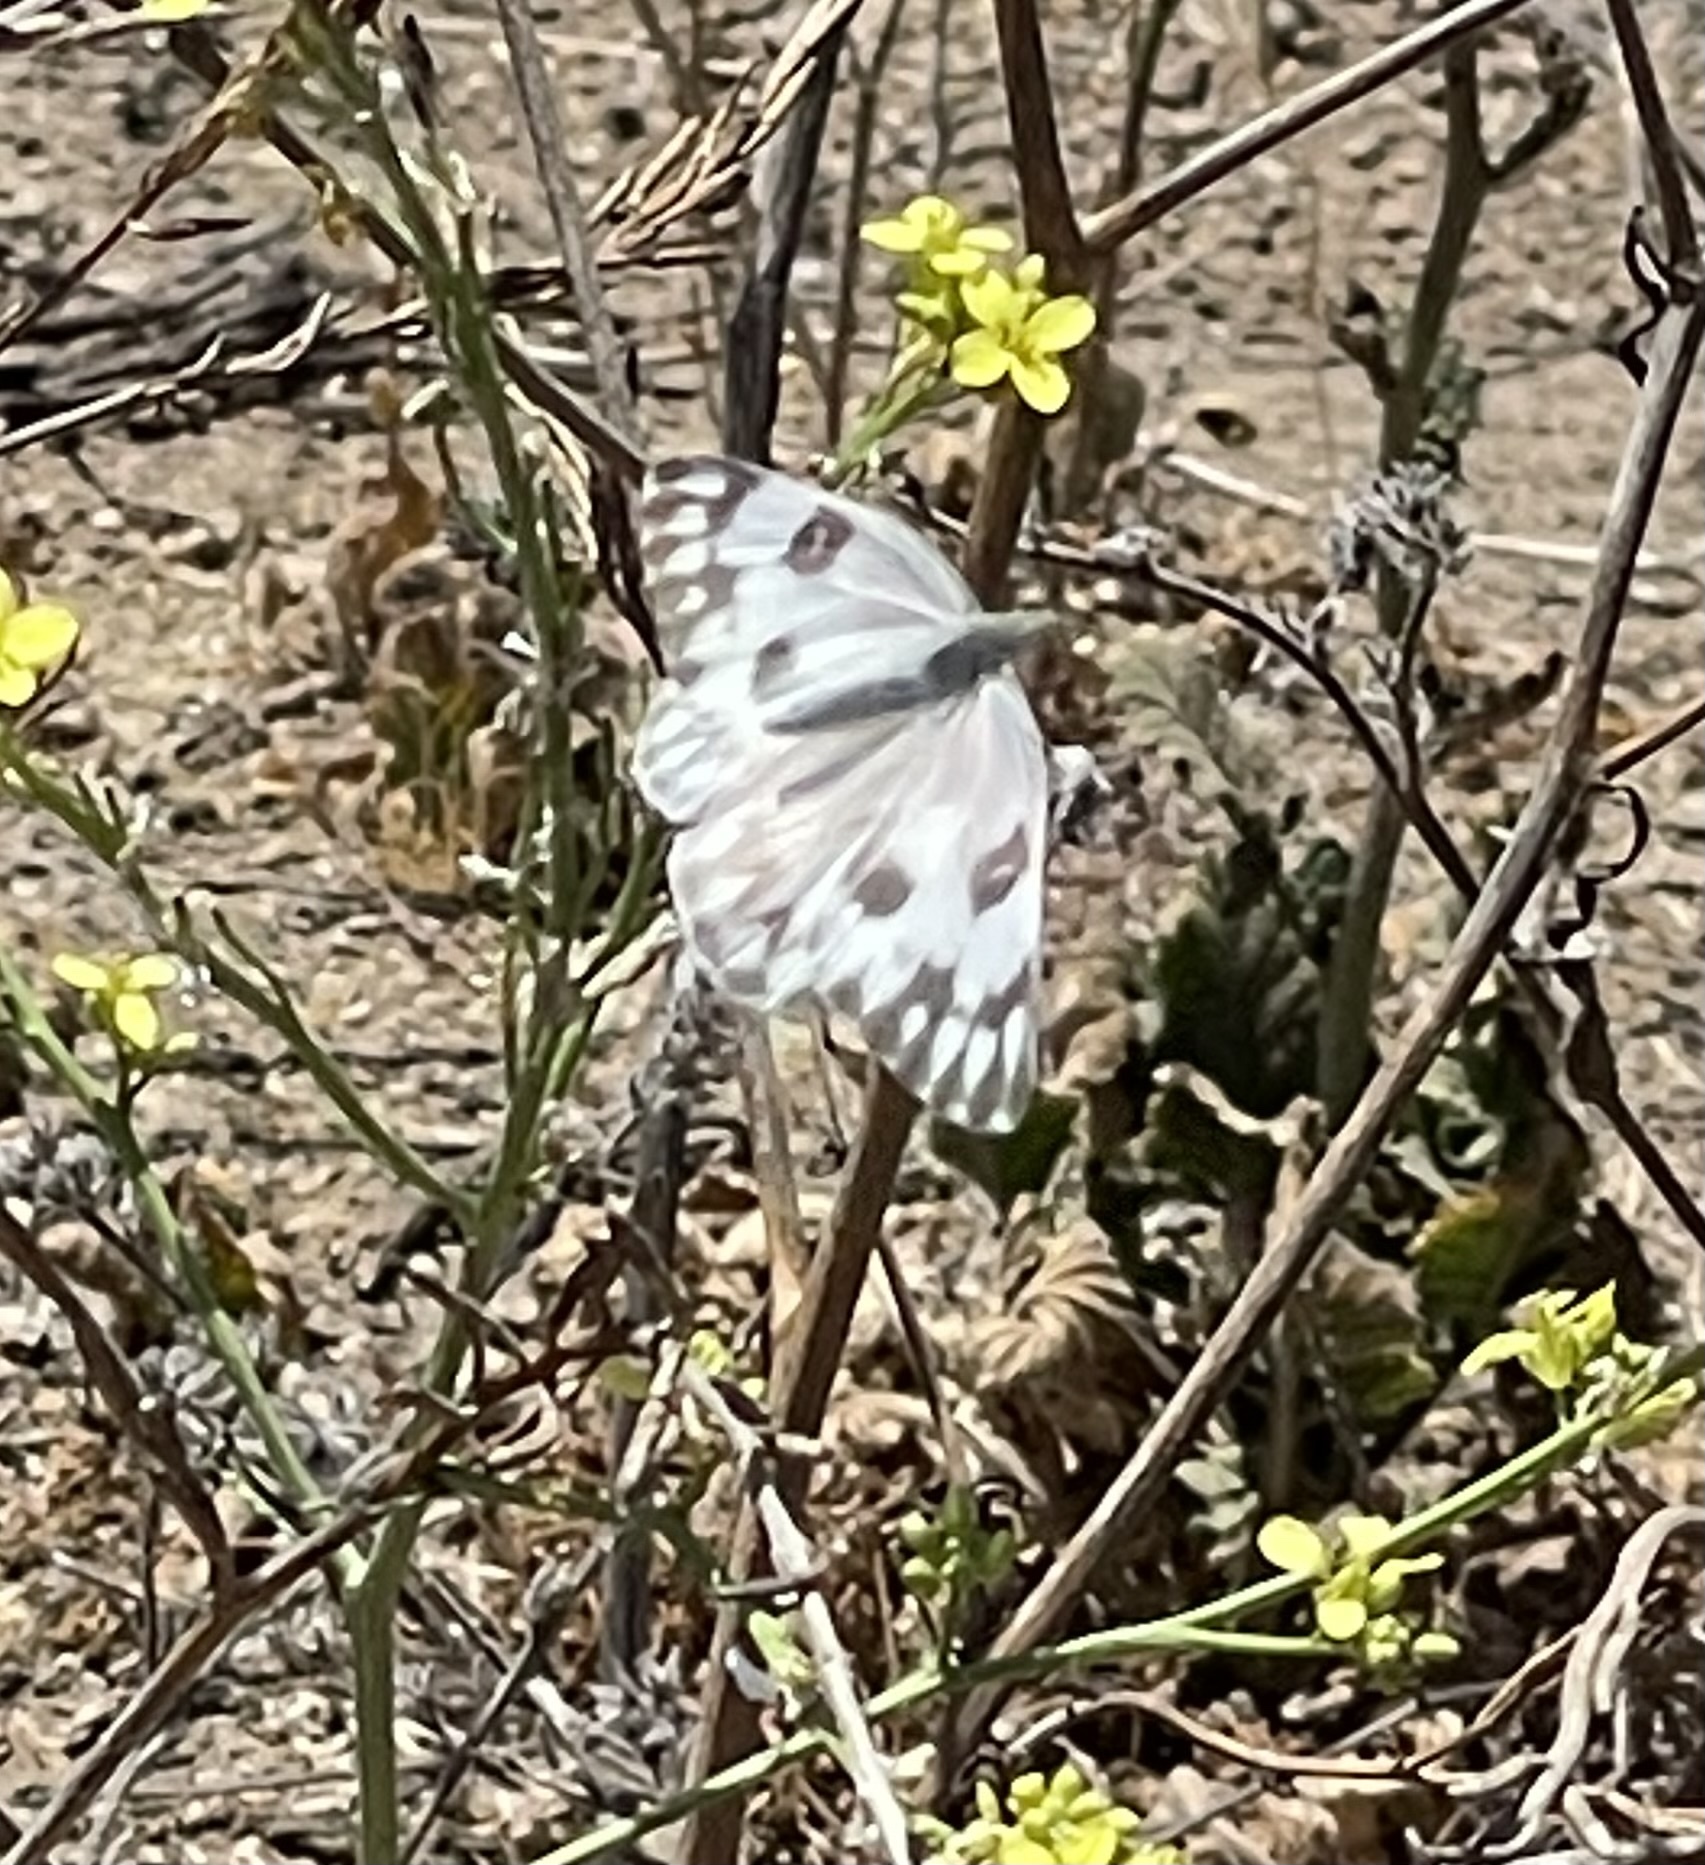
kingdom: Animalia
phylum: Arthropoda
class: Insecta
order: Lepidoptera
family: Pieridae
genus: Pontia
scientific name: Pontia protodice
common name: Checkered white
